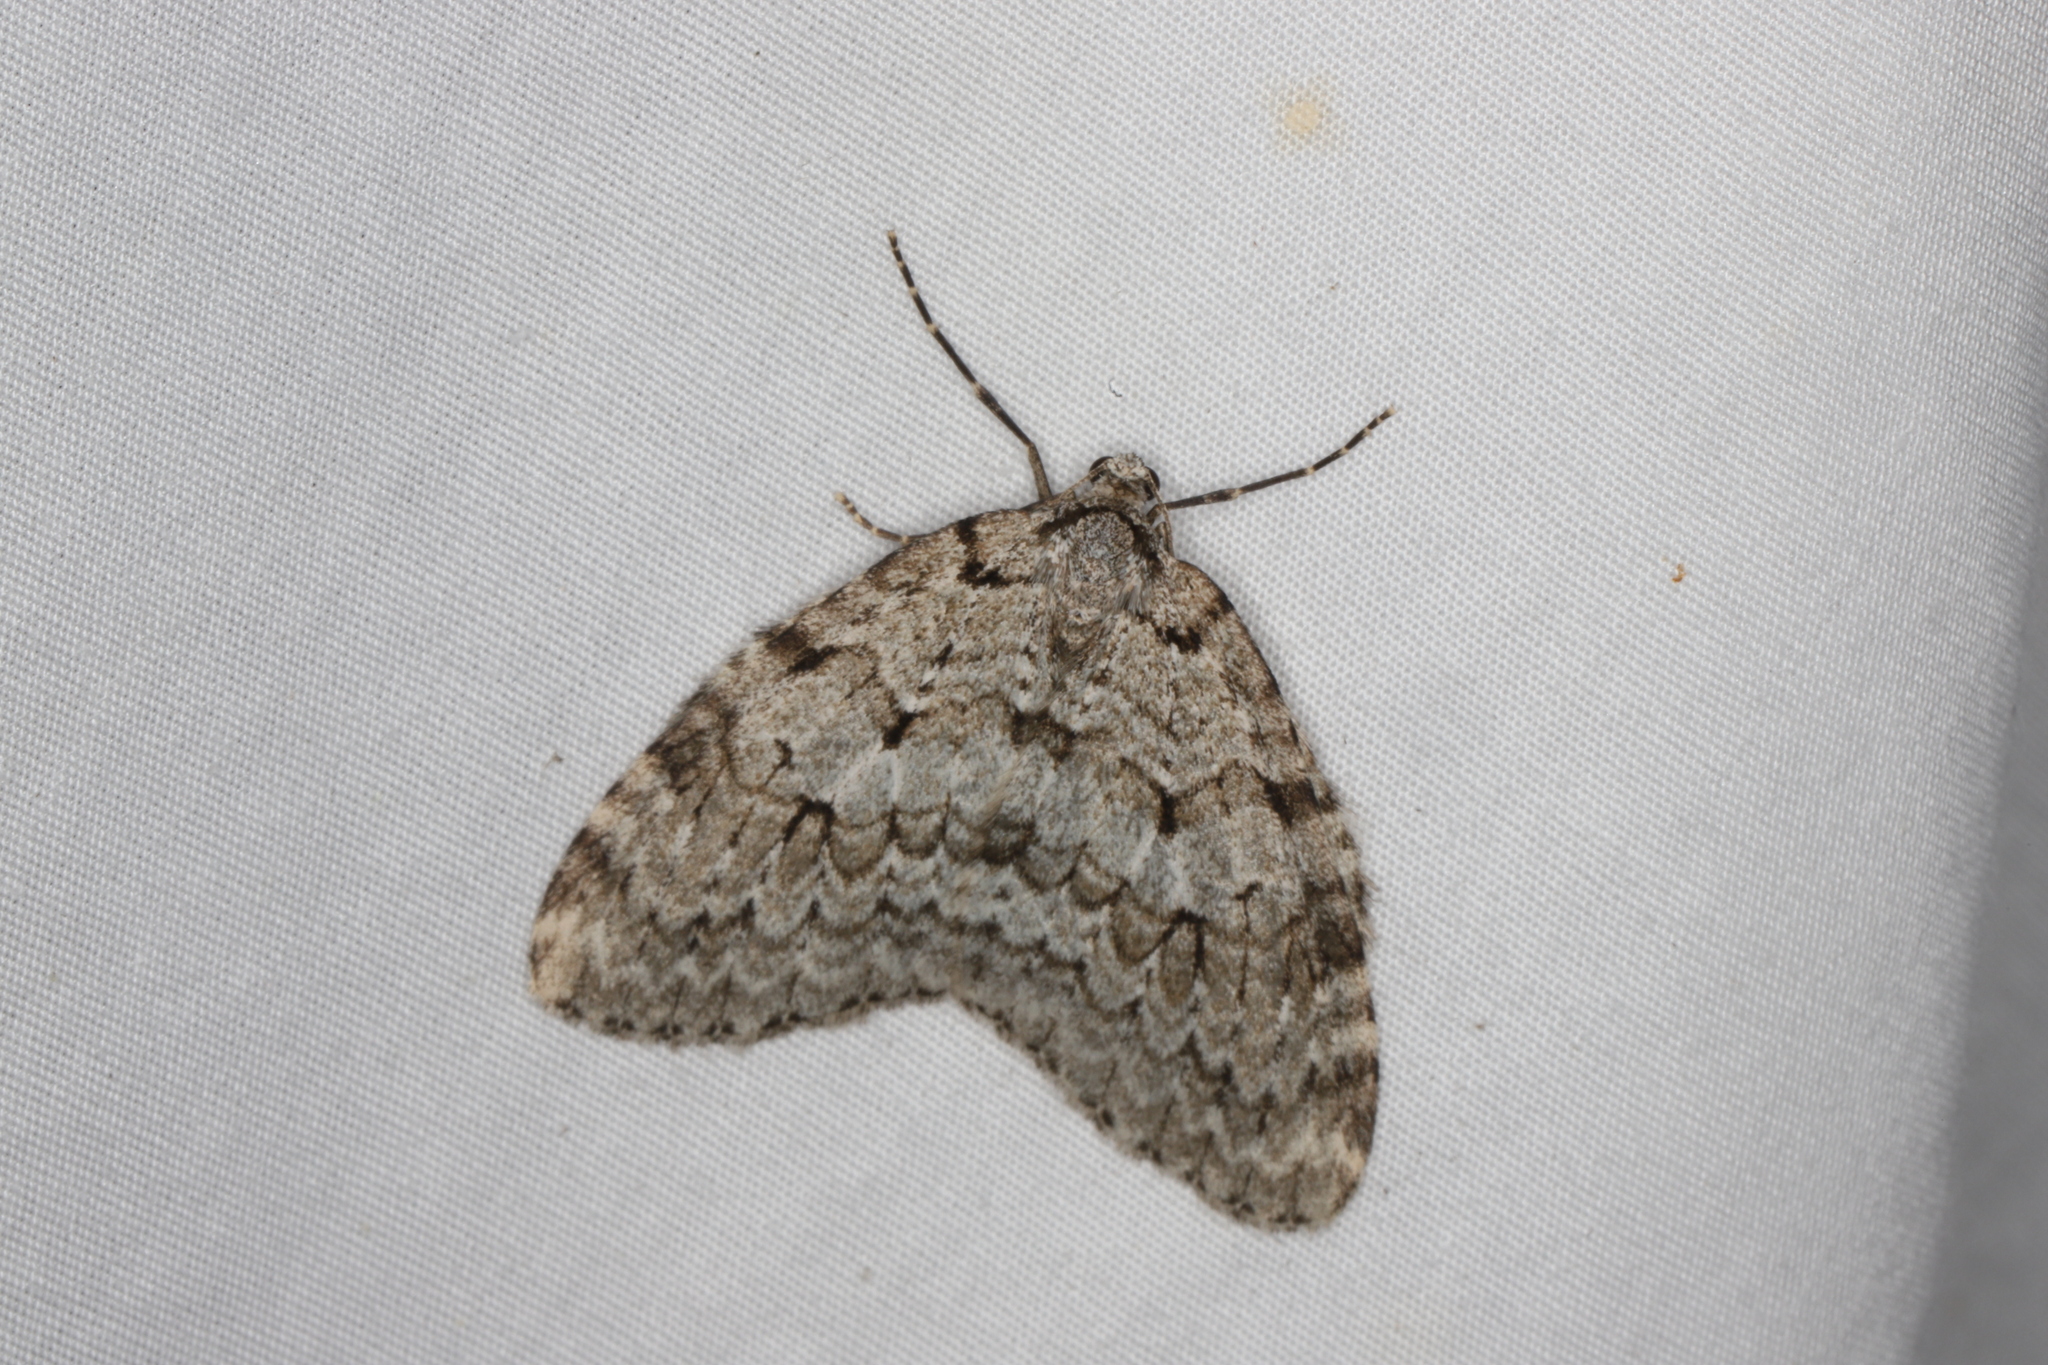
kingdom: Animalia
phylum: Arthropoda
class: Insecta
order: Lepidoptera
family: Geometridae
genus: Epirrita
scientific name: Epirrita autumnata
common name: Autumnal moth
